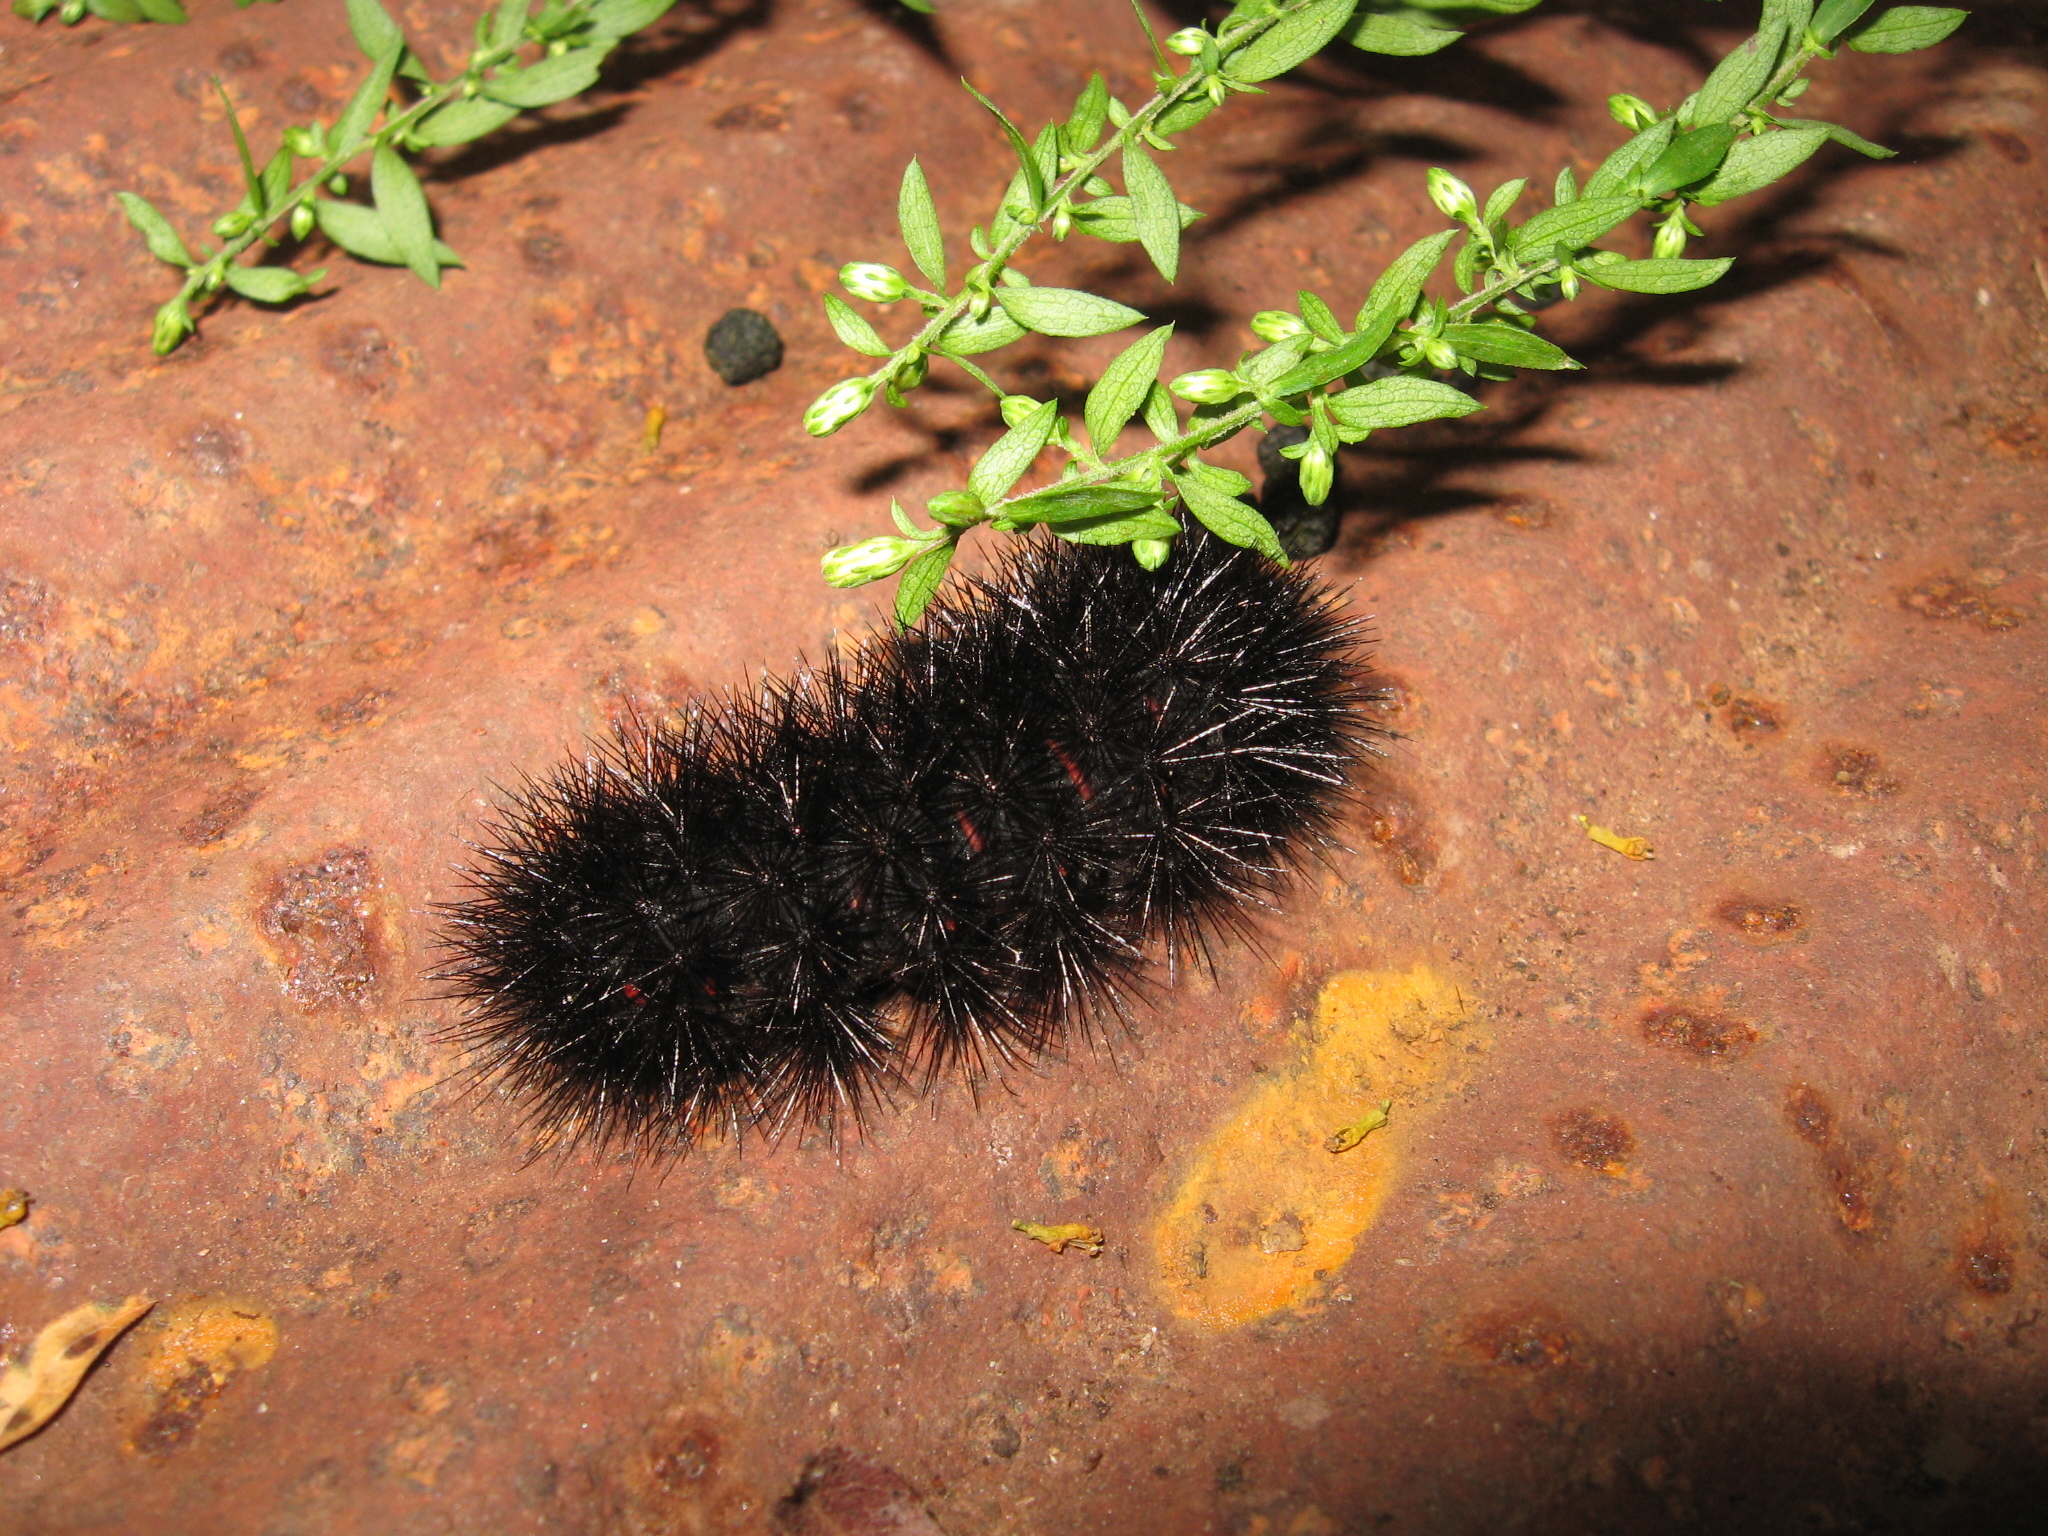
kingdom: Animalia
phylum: Arthropoda
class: Insecta
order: Lepidoptera
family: Erebidae
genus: Hypercompe
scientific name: Hypercompe scribonia
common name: Giant leopard moth
